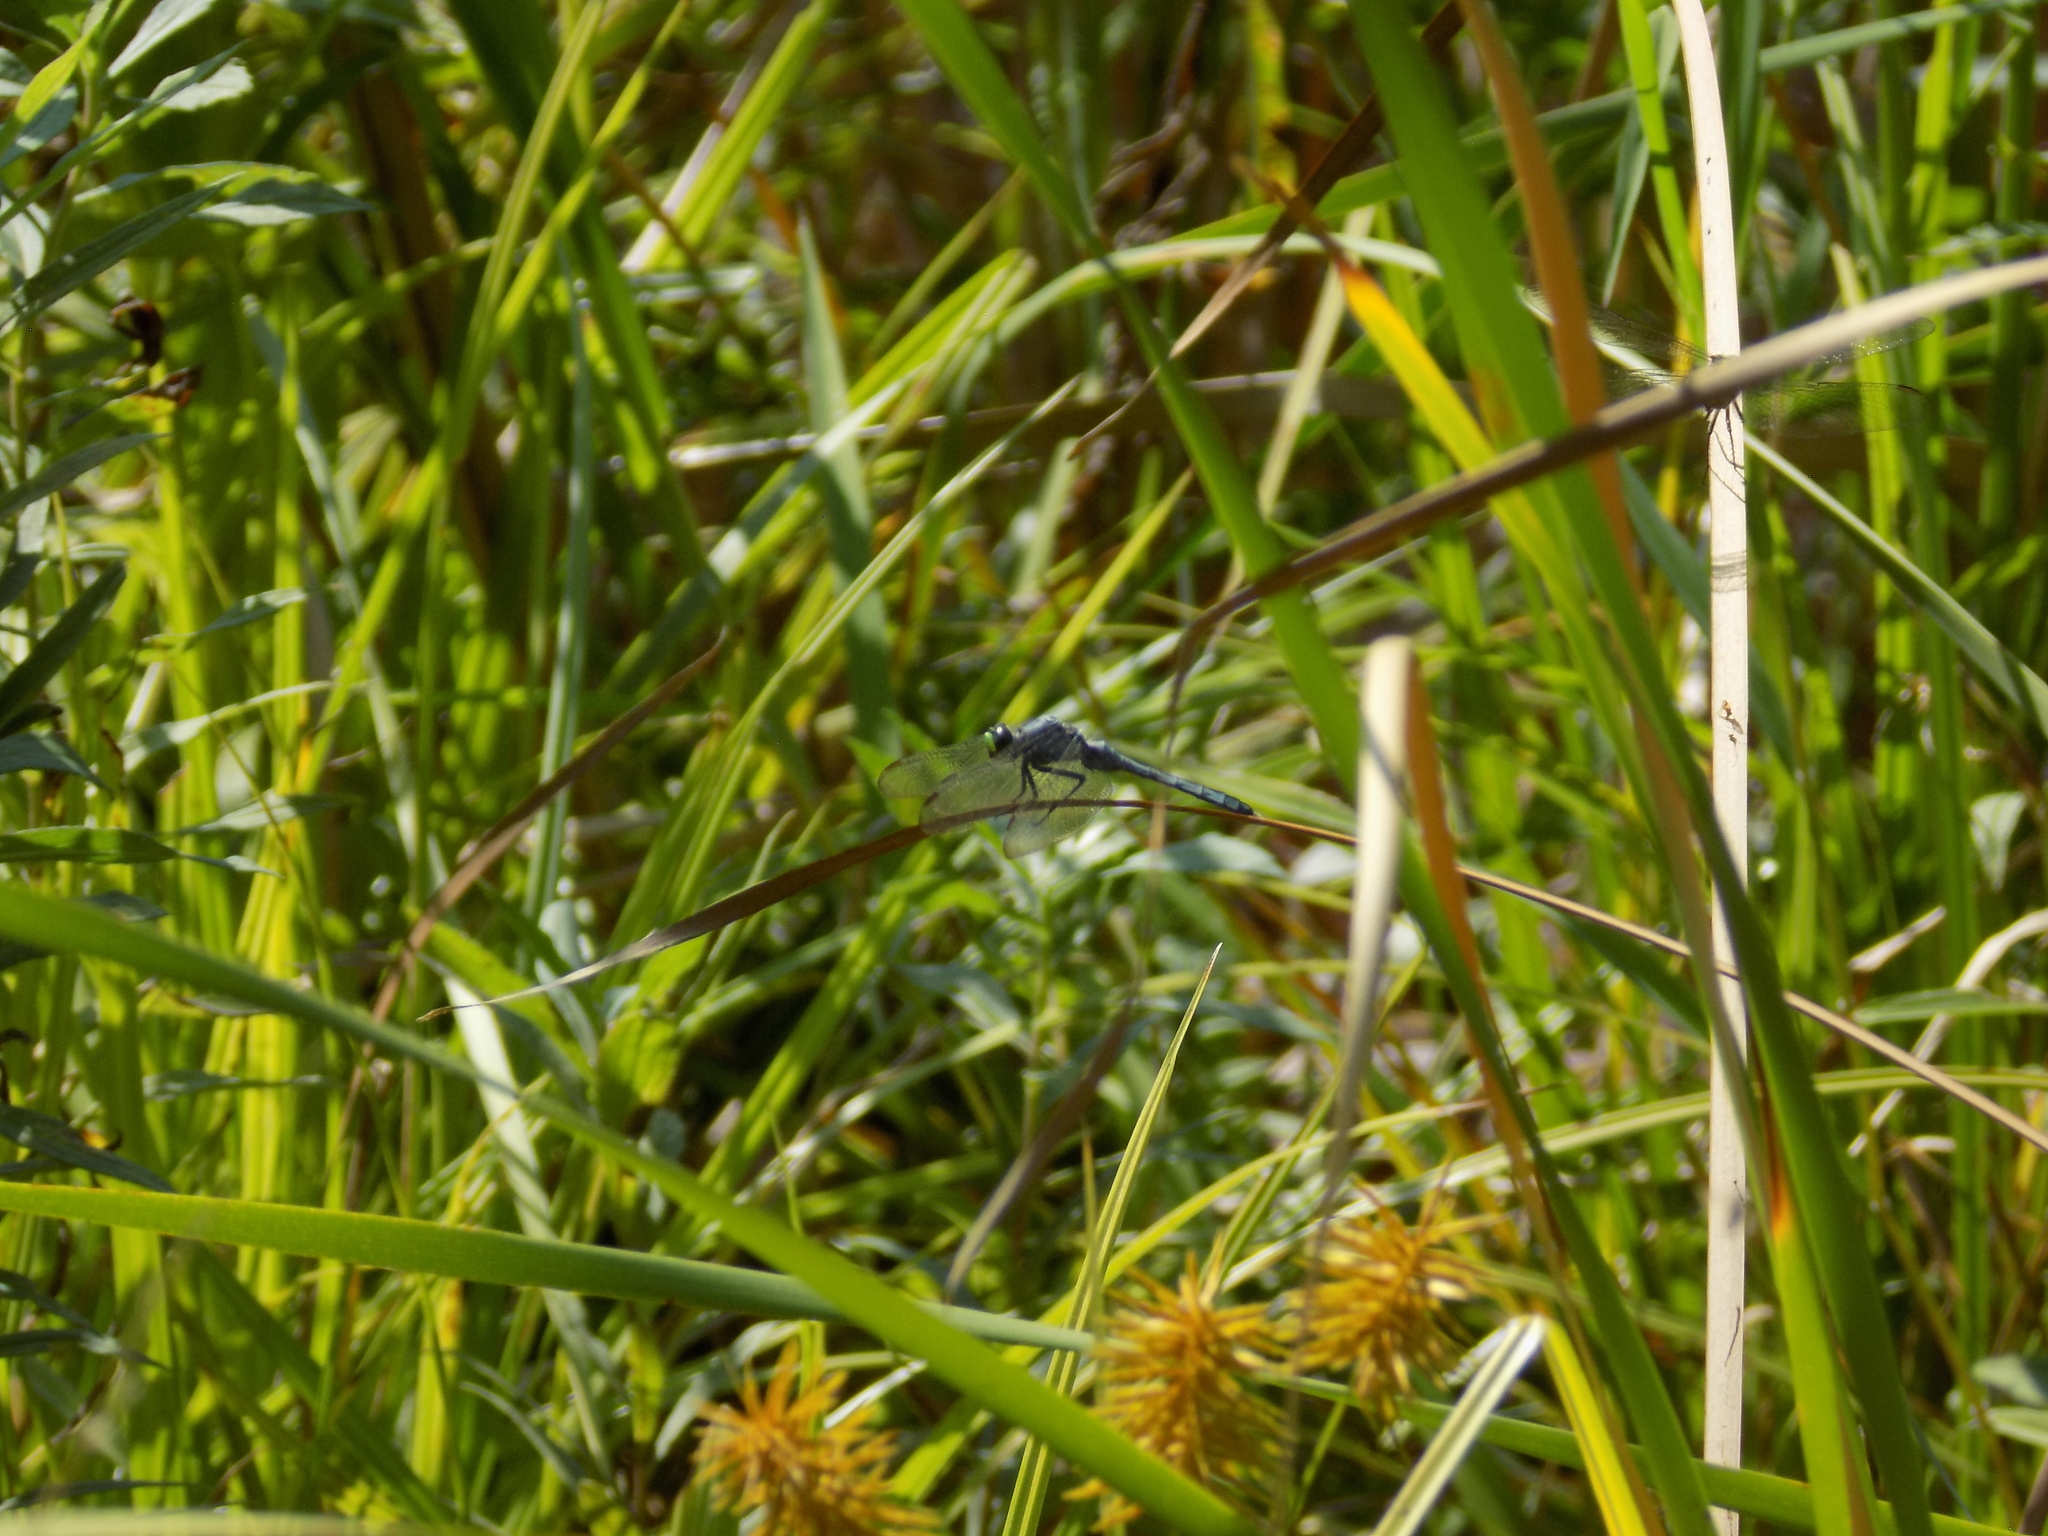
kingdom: Animalia
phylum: Arthropoda
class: Insecta
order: Odonata
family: Libellulidae
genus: Erythemis
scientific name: Erythemis simplicicollis
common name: Eastern pondhawk
